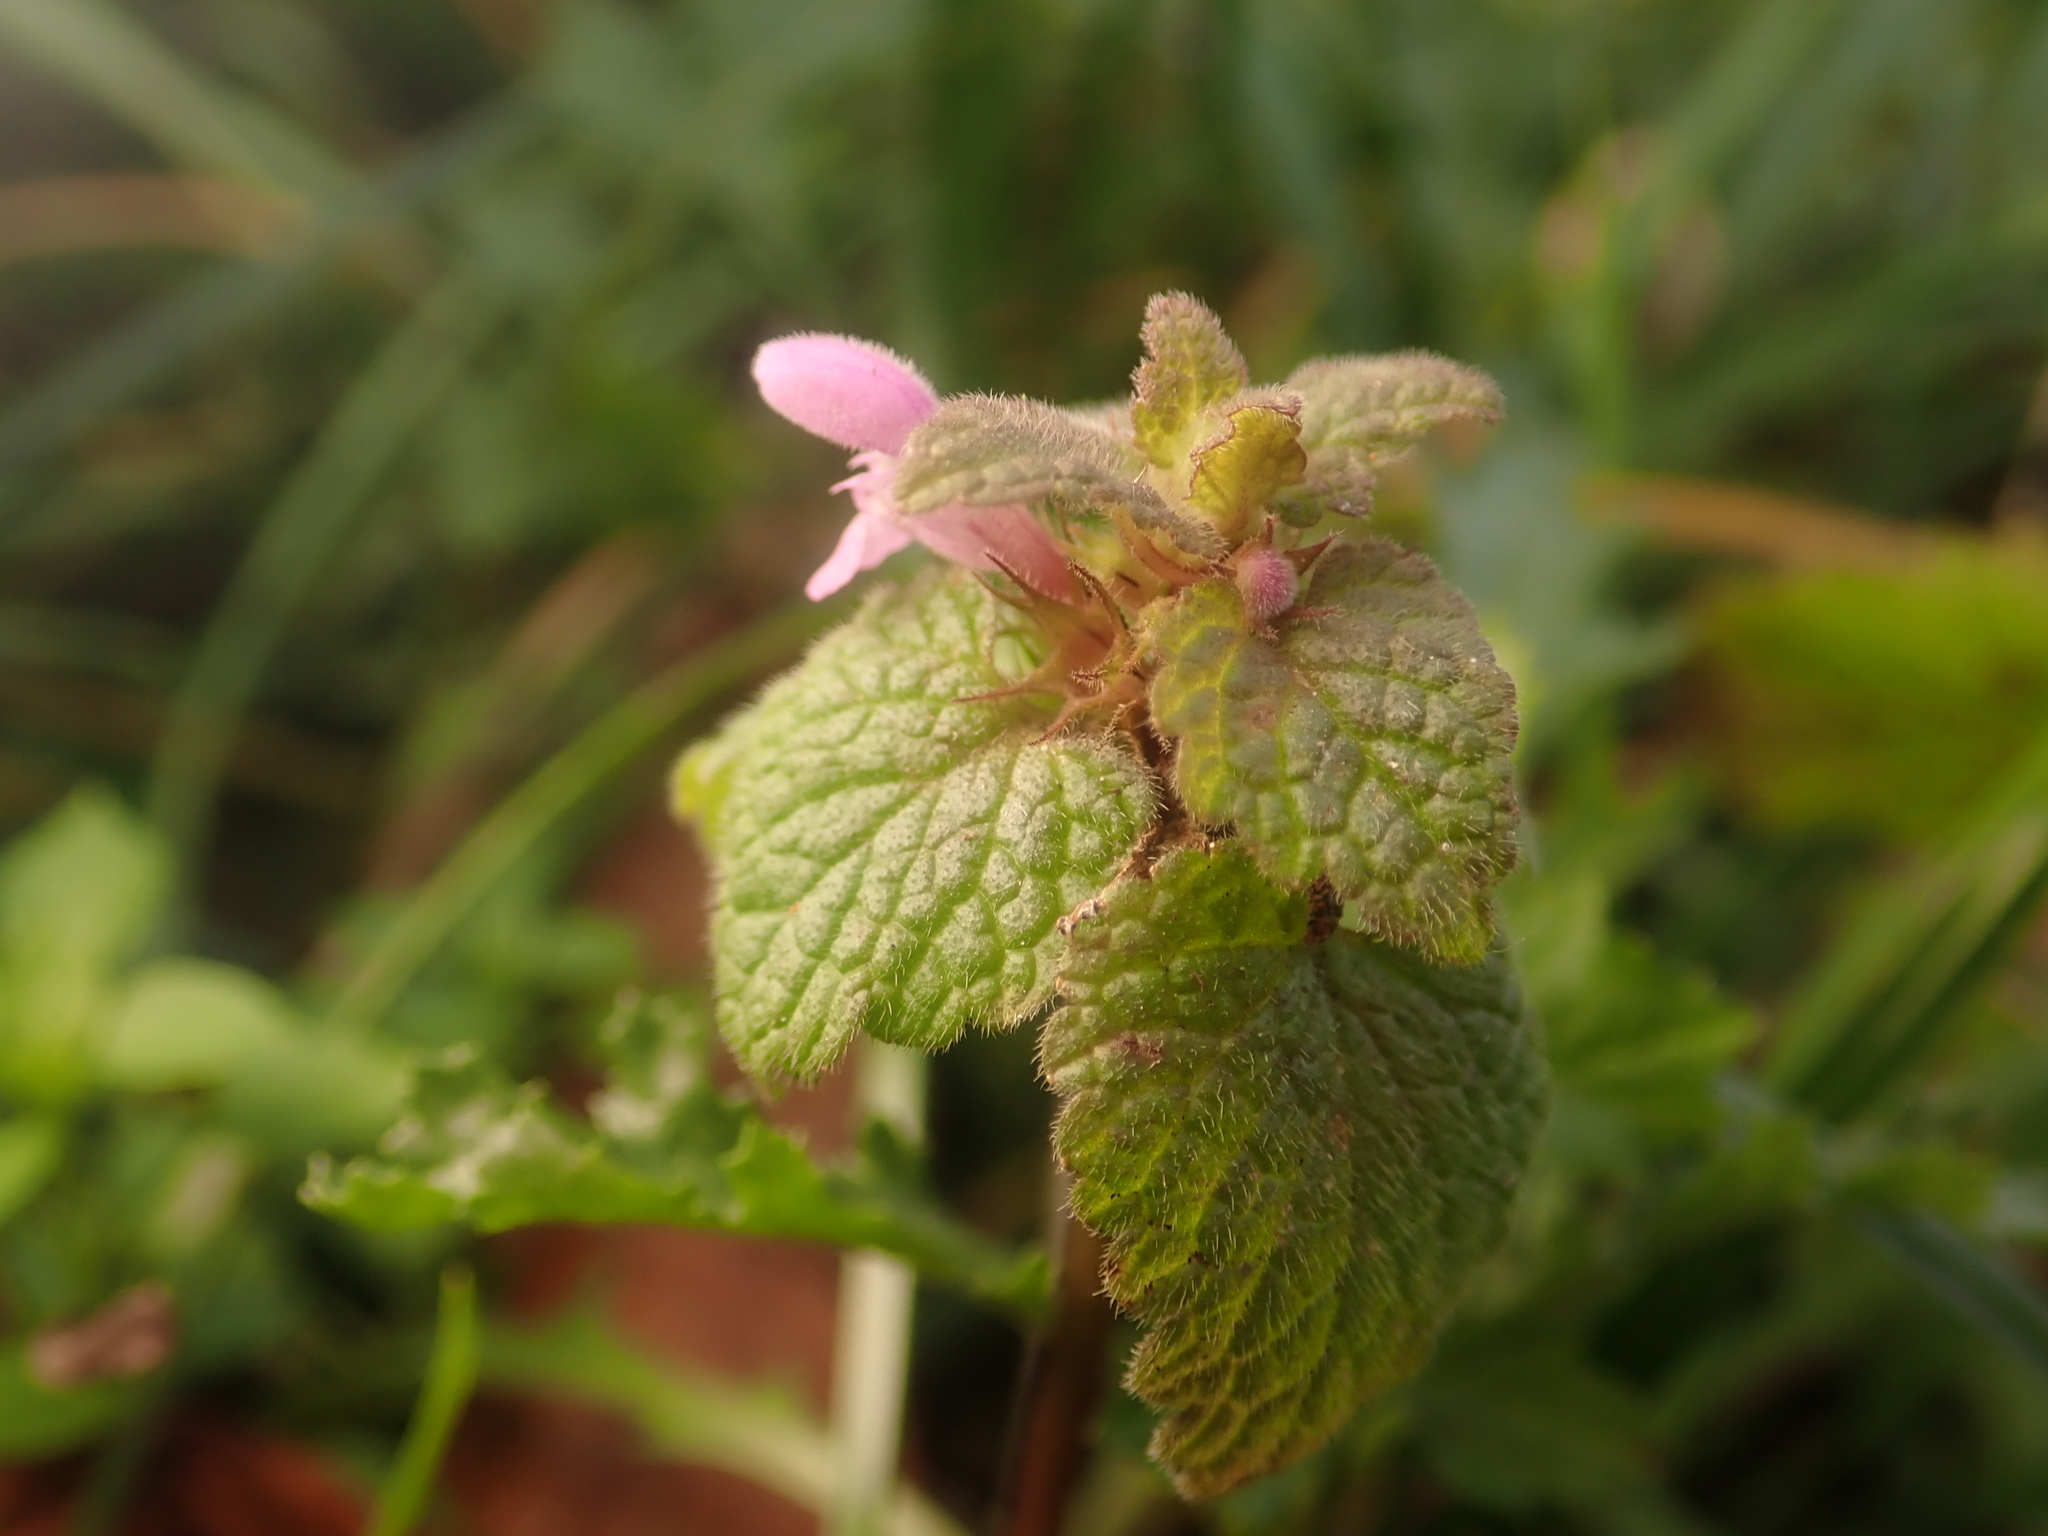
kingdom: Plantae
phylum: Tracheophyta
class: Magnoliopsida
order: Lamiales
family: Lamiaceae
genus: Lamium
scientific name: Lamium purpureum
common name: Red dead-nettle
